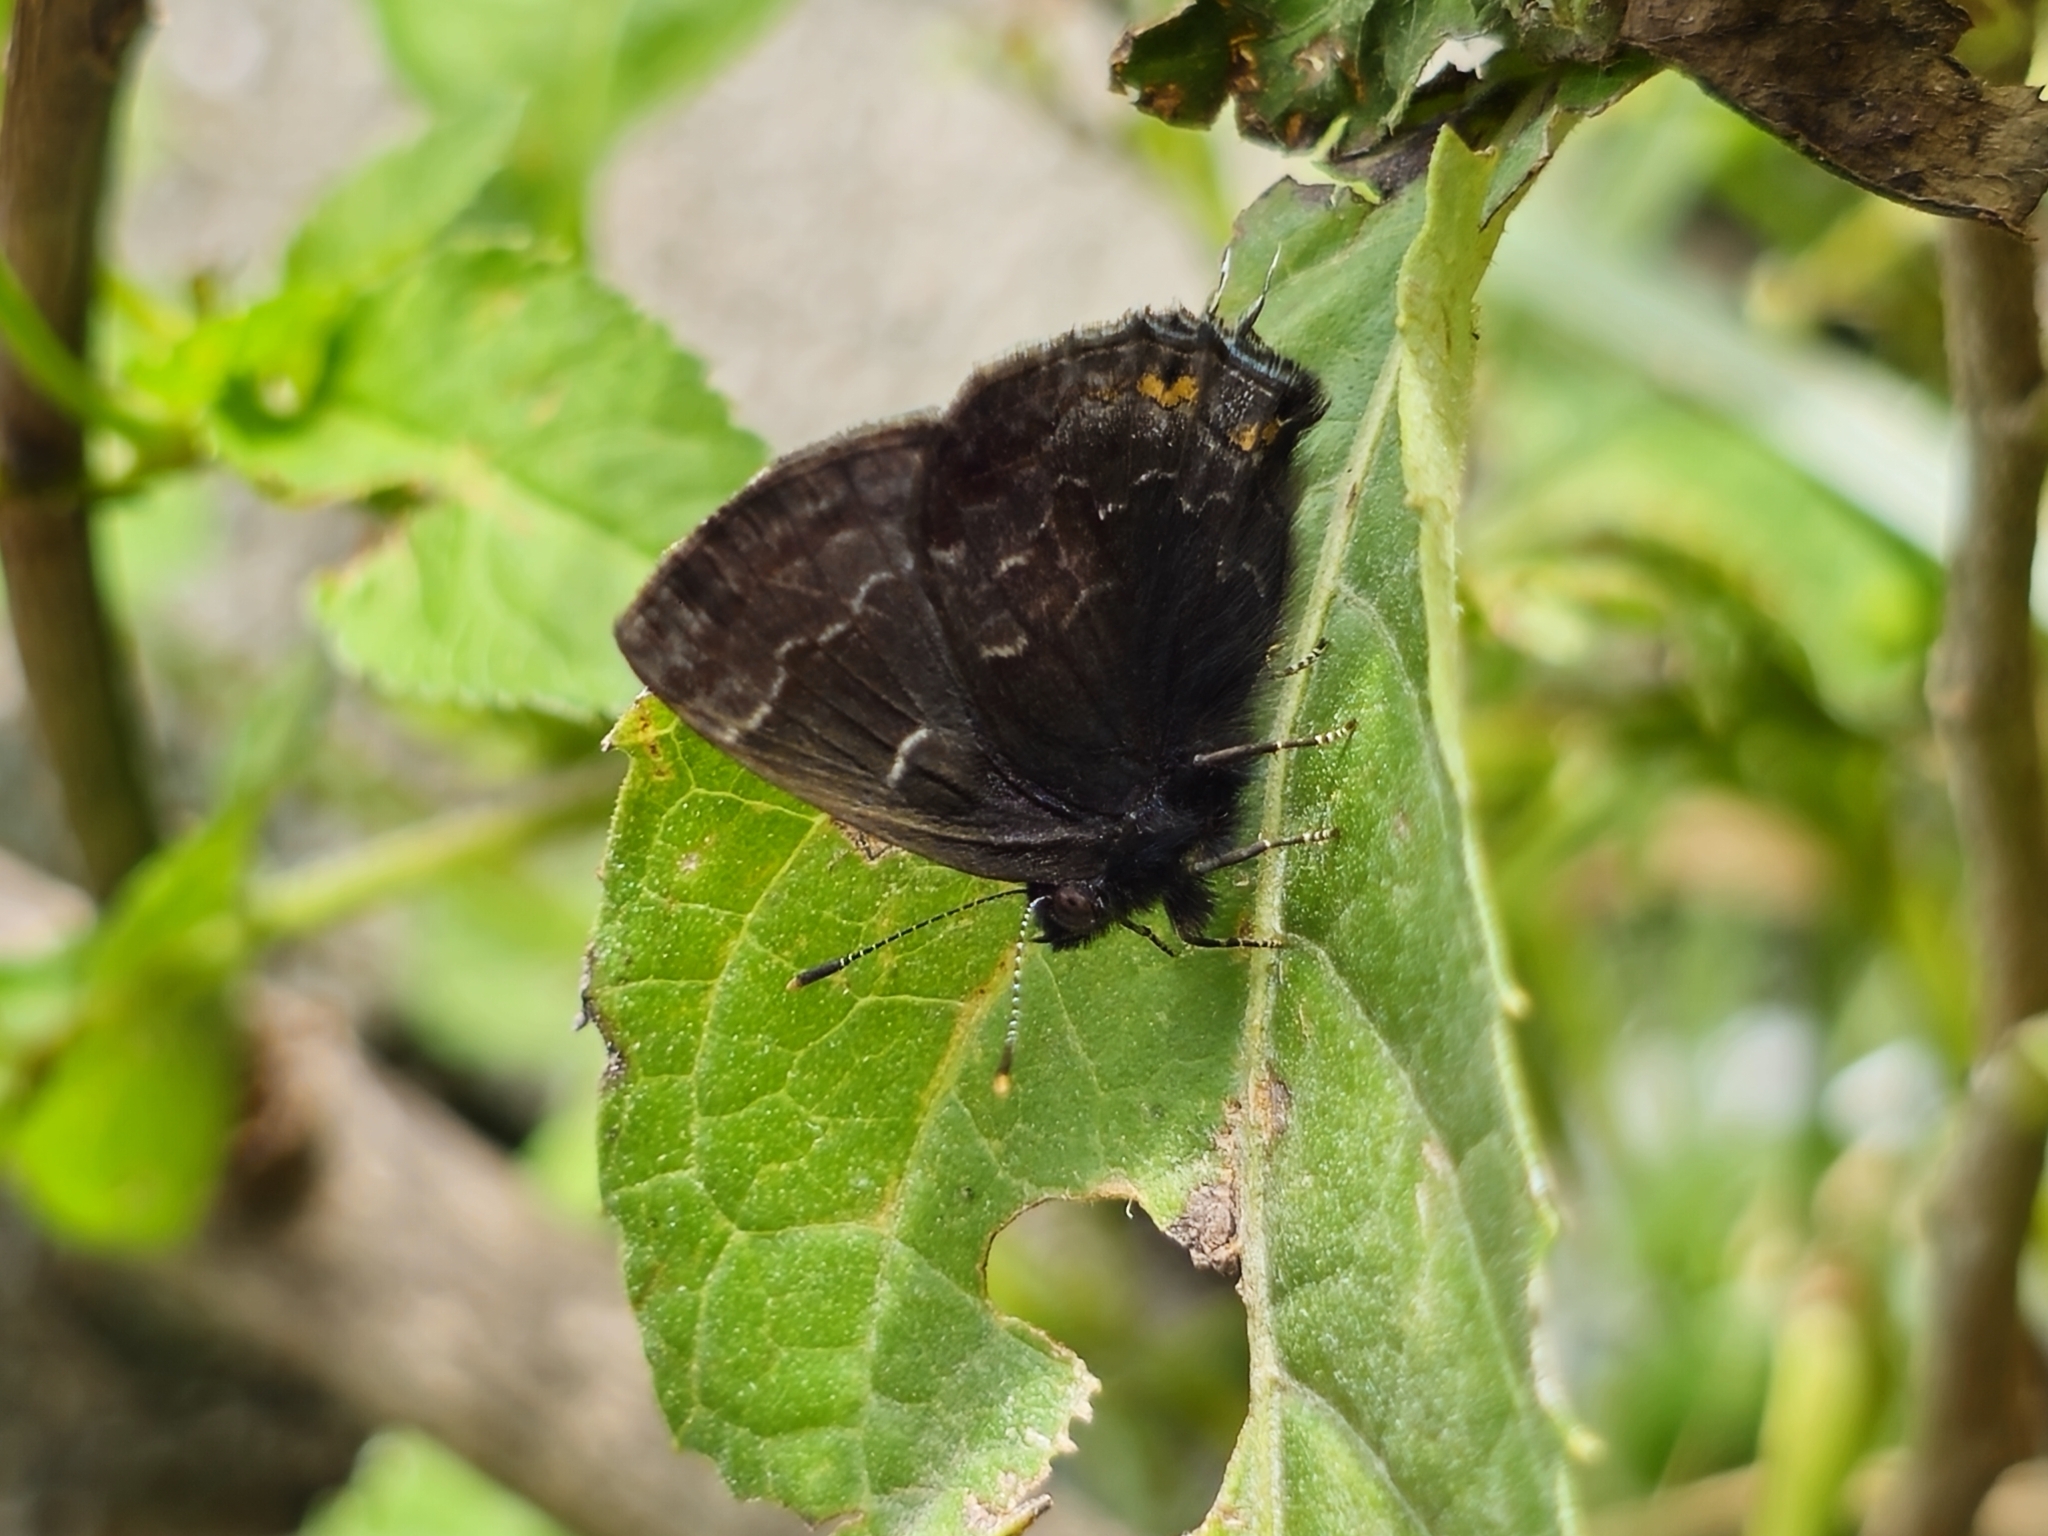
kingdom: Animalia
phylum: Arthropoda
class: Insecta
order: Lepidoptera
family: Lycaenidae
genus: Ocaria
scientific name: Ocaria ocrisia
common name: Black hairstreak
